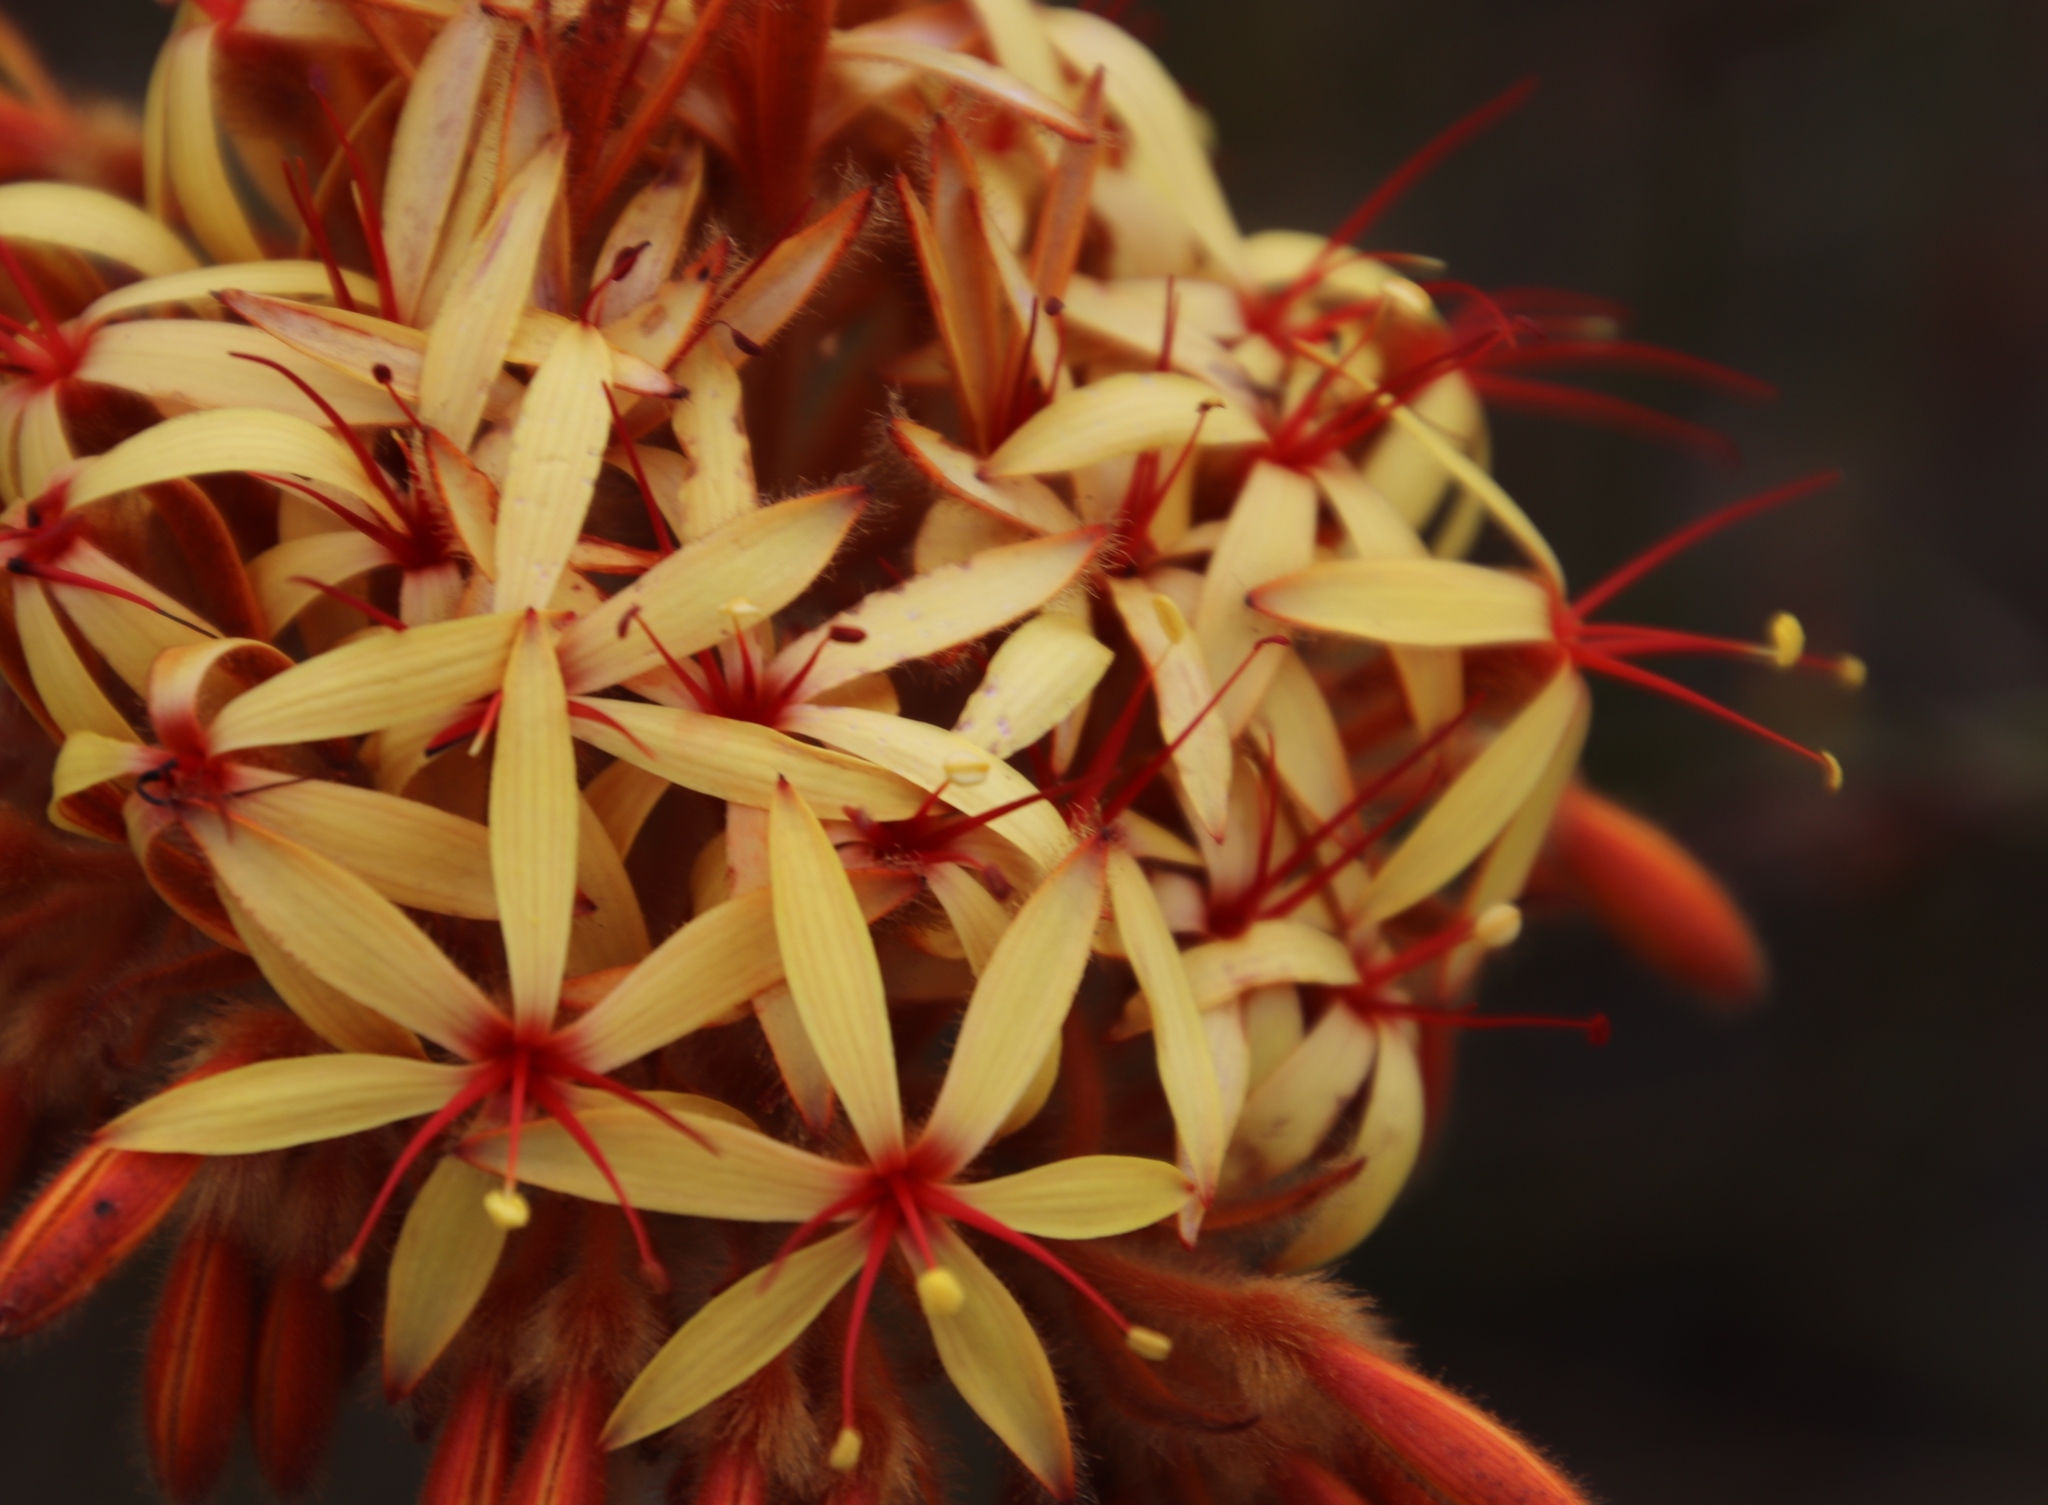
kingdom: Plantae
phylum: Tracheophyta
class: Liliopsida
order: Commelinales
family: Haemodoraceae
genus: Dilatris
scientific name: Dilatris viscosa
